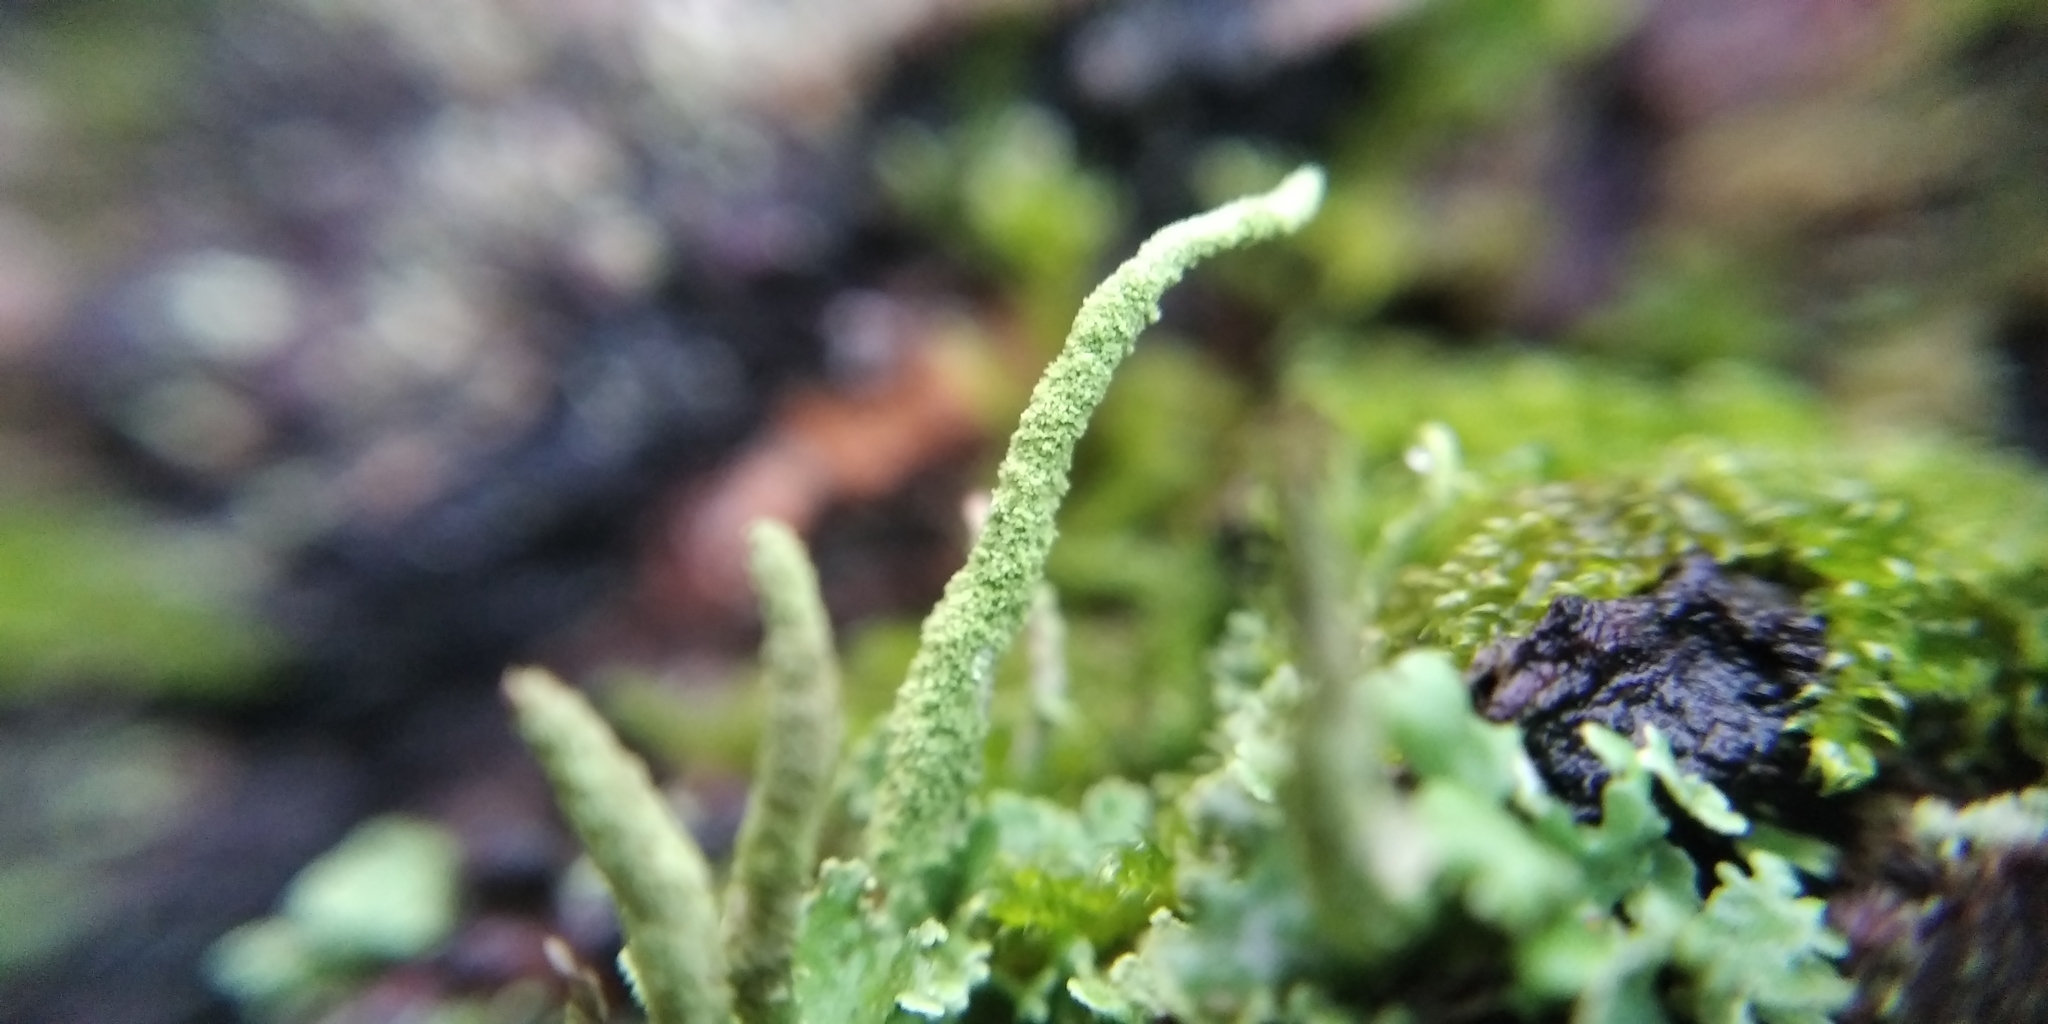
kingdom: Fungi
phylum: Ascomycota
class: Lecanoromycetes
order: Lecanorales
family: Cladoniaceae
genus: Cladonia
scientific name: Cladonia coniocraea
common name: Common powderhorn
